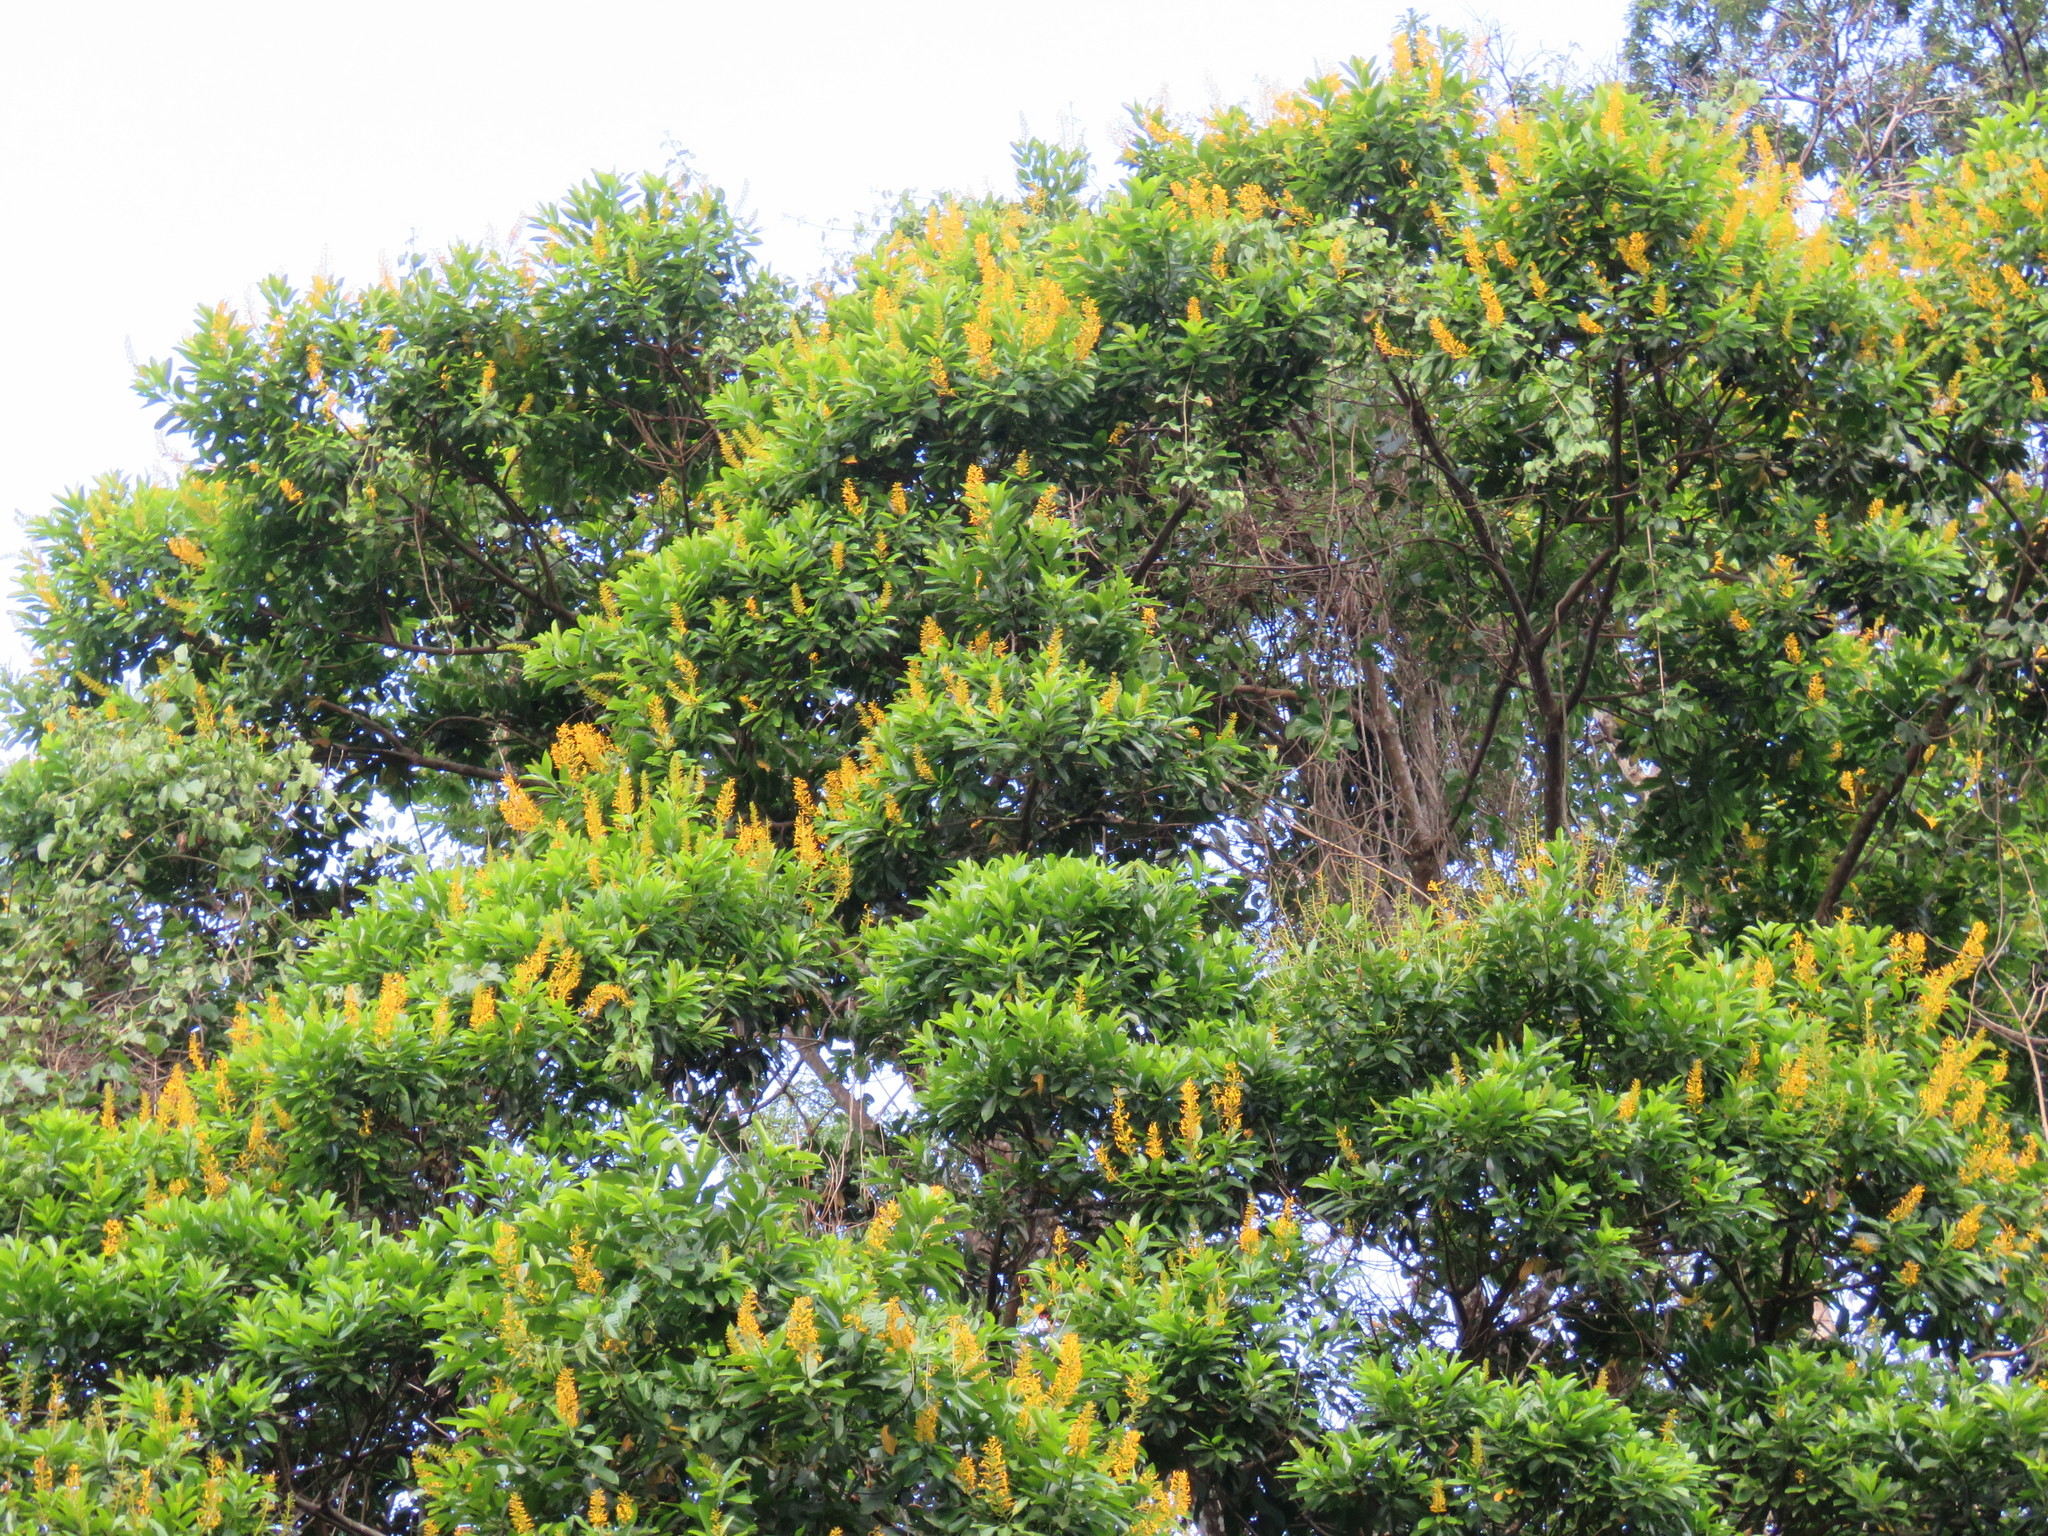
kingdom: Plantae
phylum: Tracheophyta
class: Magnoliopsida
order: Myrtales
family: Vochysiaceae
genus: Vochysia
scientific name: Vochysia guatemalensis
